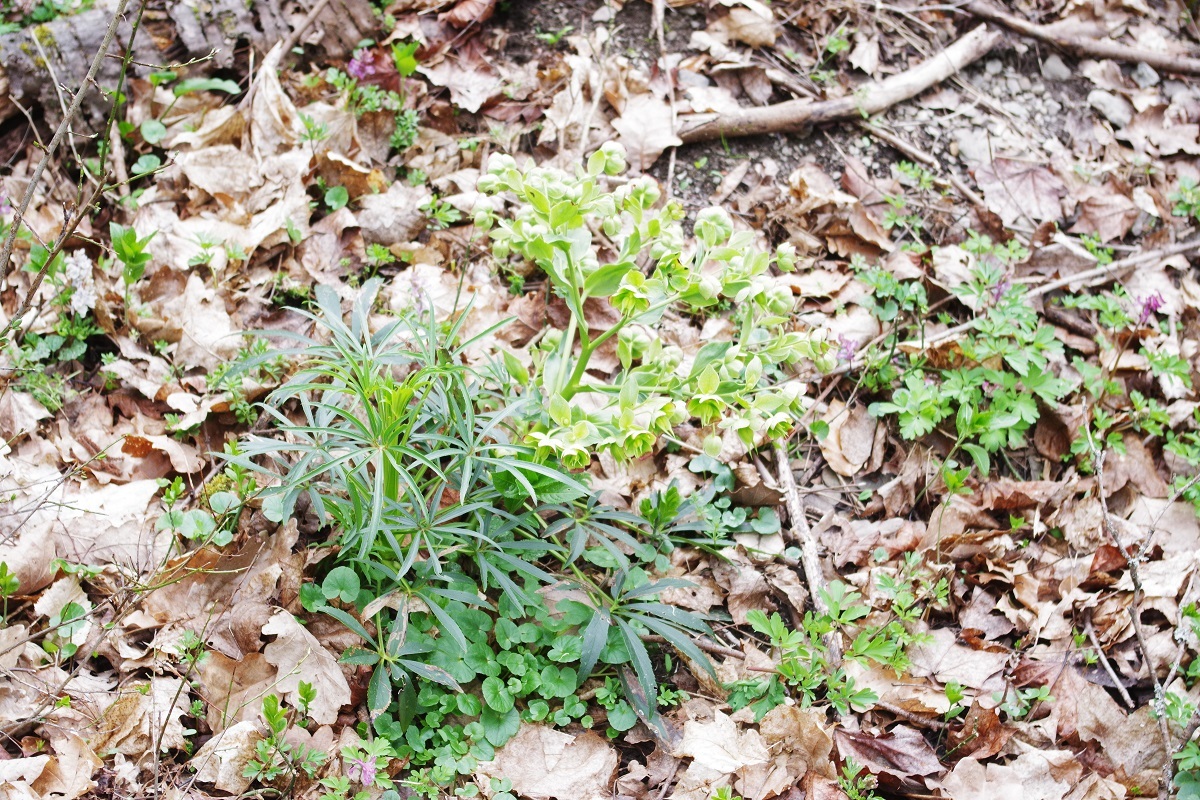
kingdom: Plantae
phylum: Tracheophyta
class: Magnoliopsida
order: Ranunculales
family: Ranunculaceae
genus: Helleborus
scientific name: Helleborus foetidus
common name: Stinking hellebore
